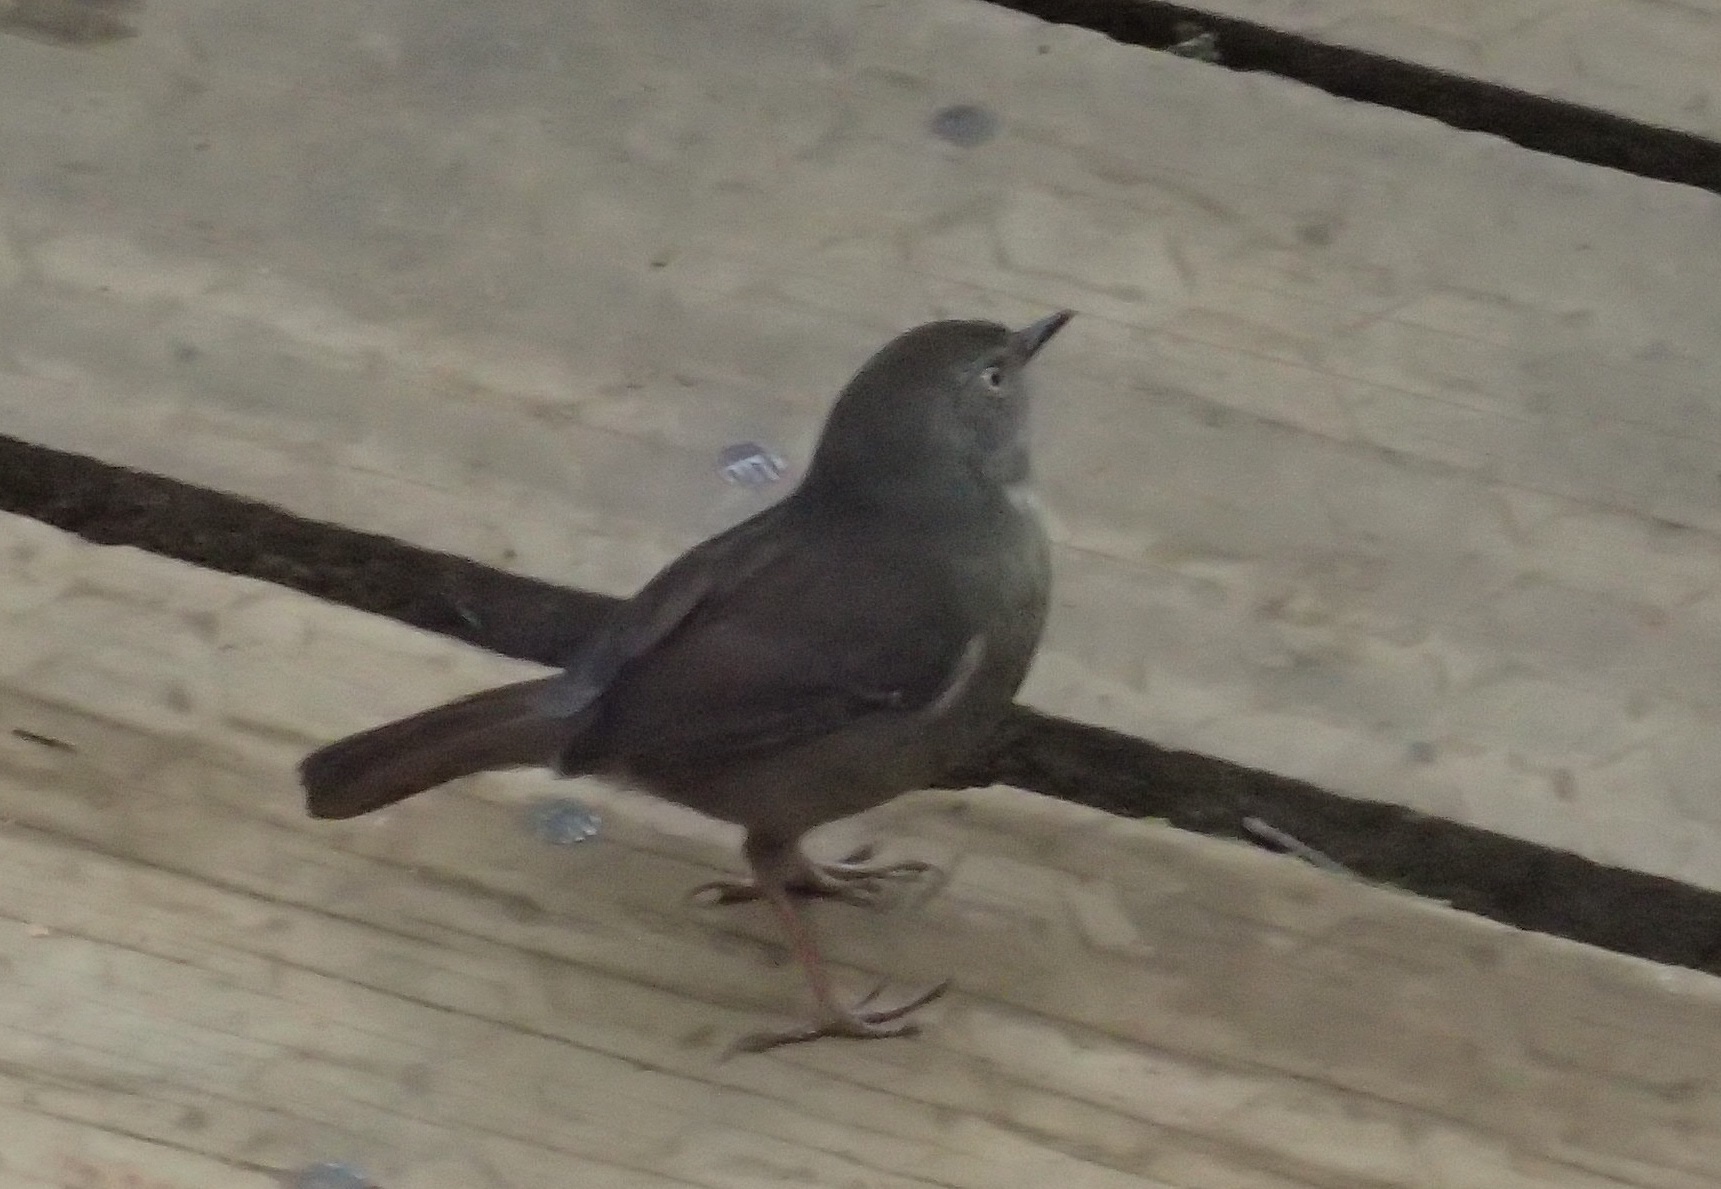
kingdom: Animalia
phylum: Chordata
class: Aves
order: Passeriformes
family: Acanthizidae
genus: Sericornis
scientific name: Sericornis humilis
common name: Tasmanian scrubwren
